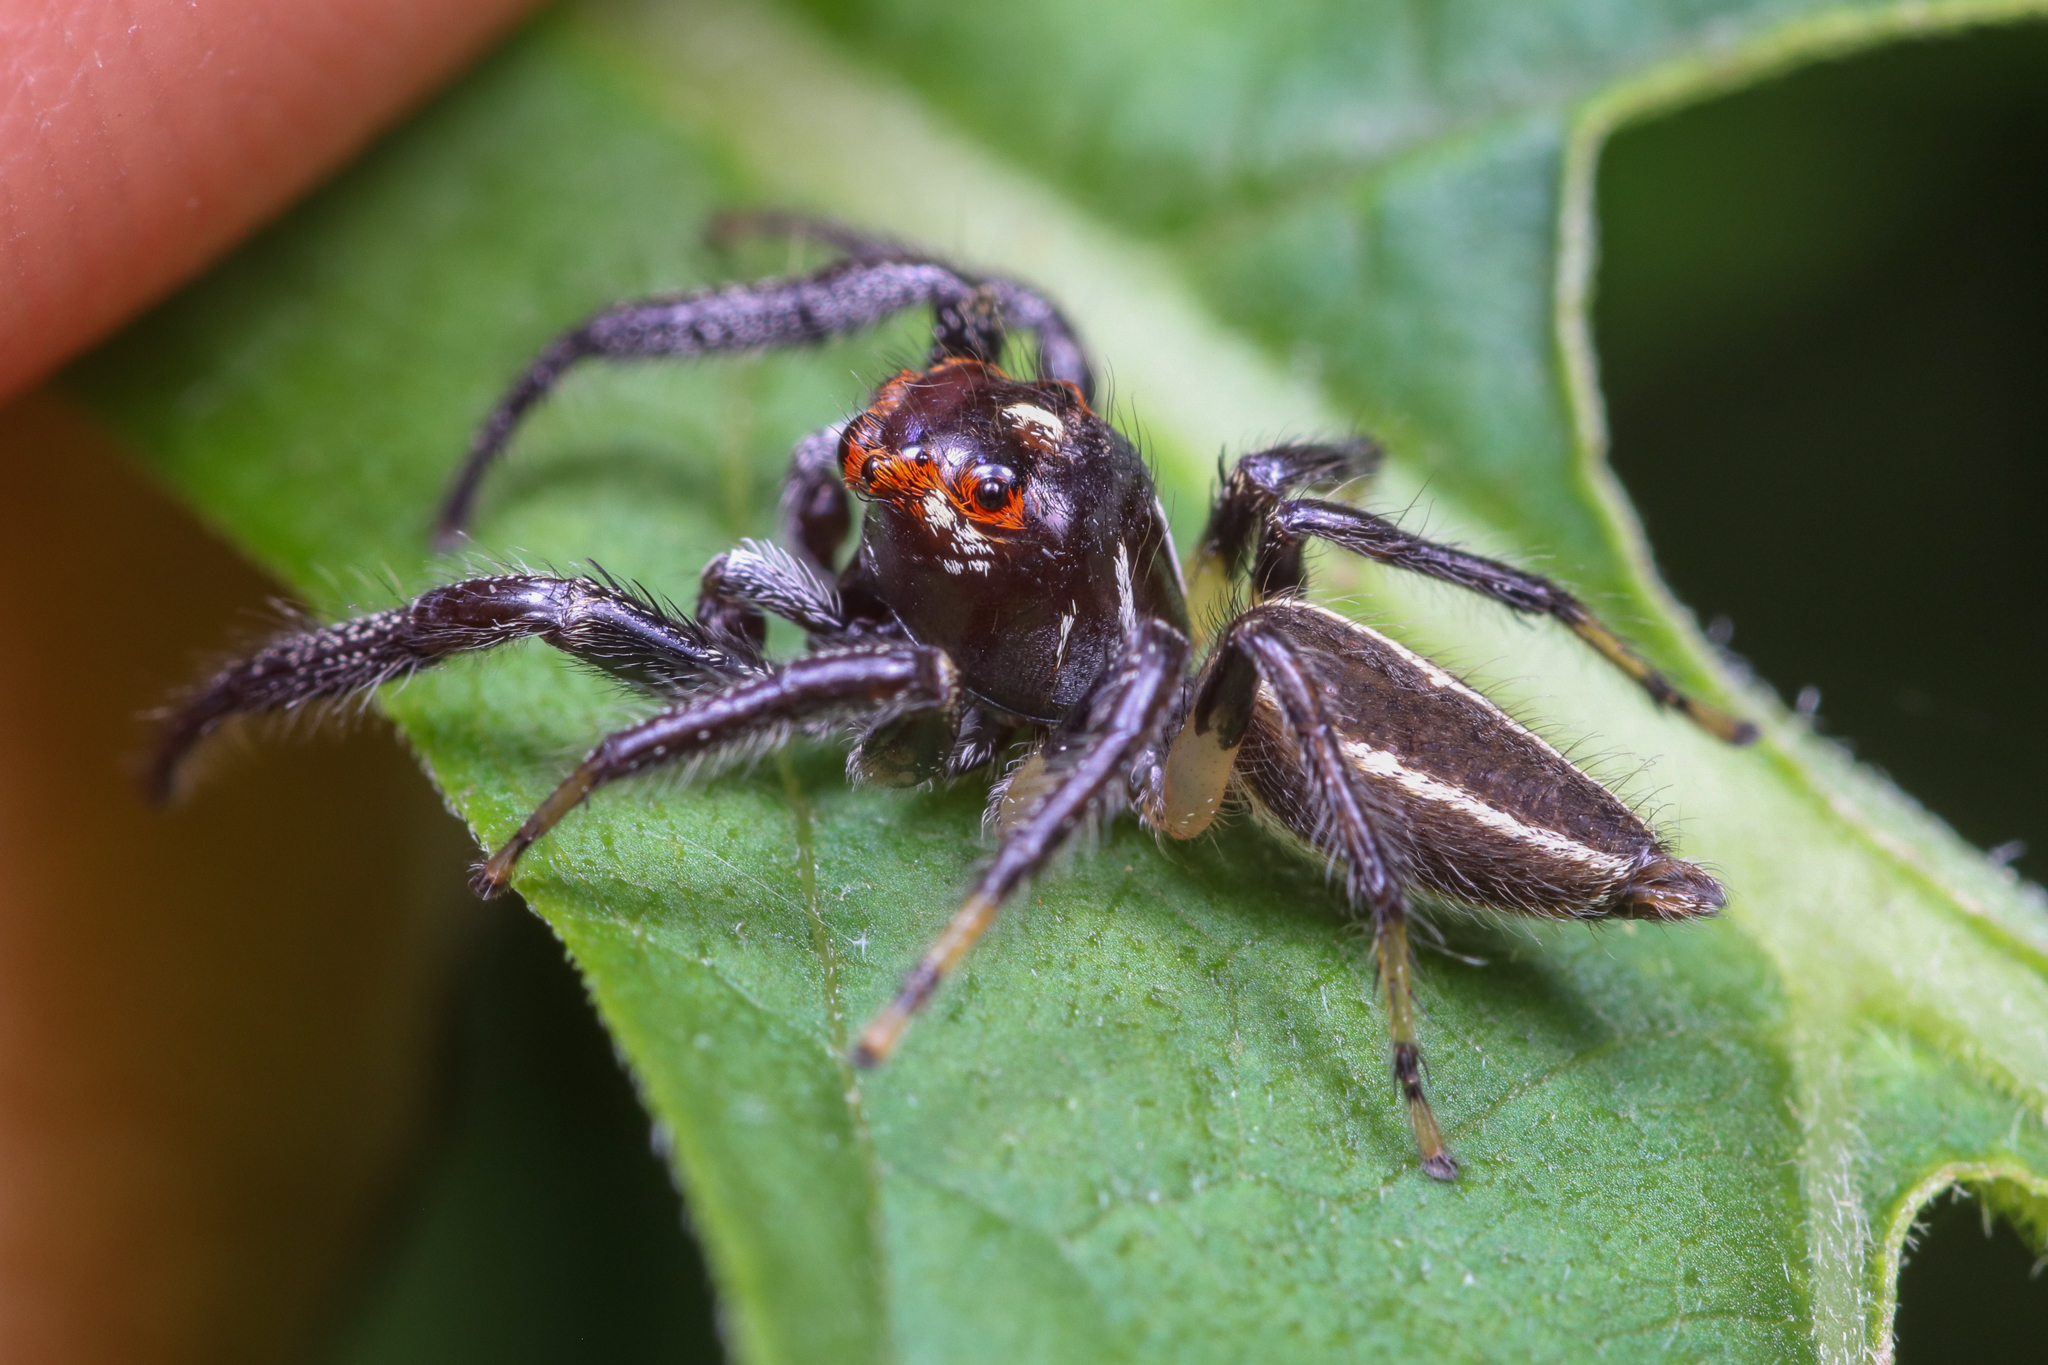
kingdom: Animalia
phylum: Arthropoda
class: Arachnida
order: Araneae
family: Salticidae
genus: Colonus
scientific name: Colonus sylvanus
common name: Jumping spiders
